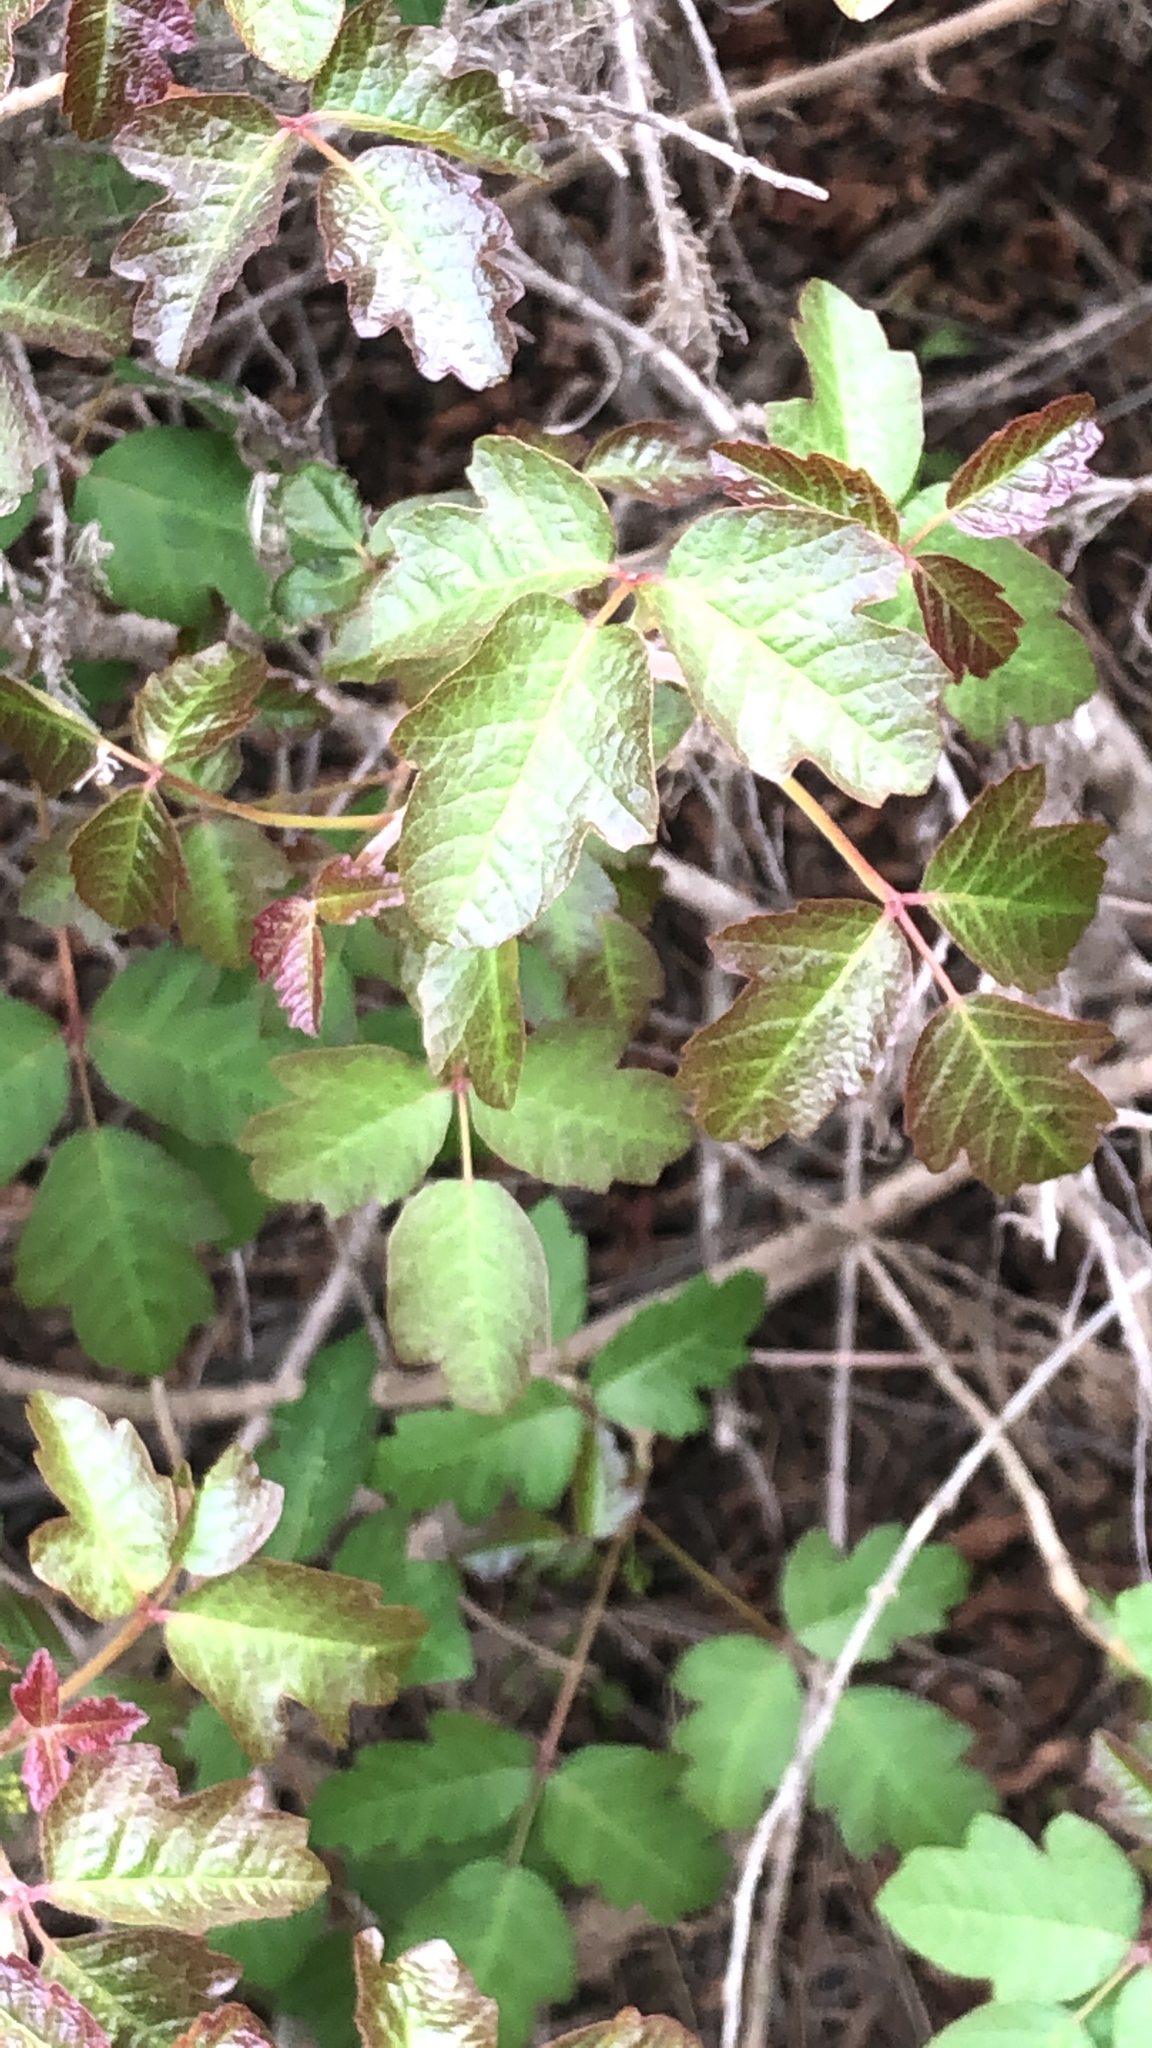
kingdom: Plantae
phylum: Tracheophyta
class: Magnoliopsida
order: Sapindales
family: Anacardiaceae
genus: Toxicodendron
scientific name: Toxicodendron diversilobum
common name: Pacific poison-oak
